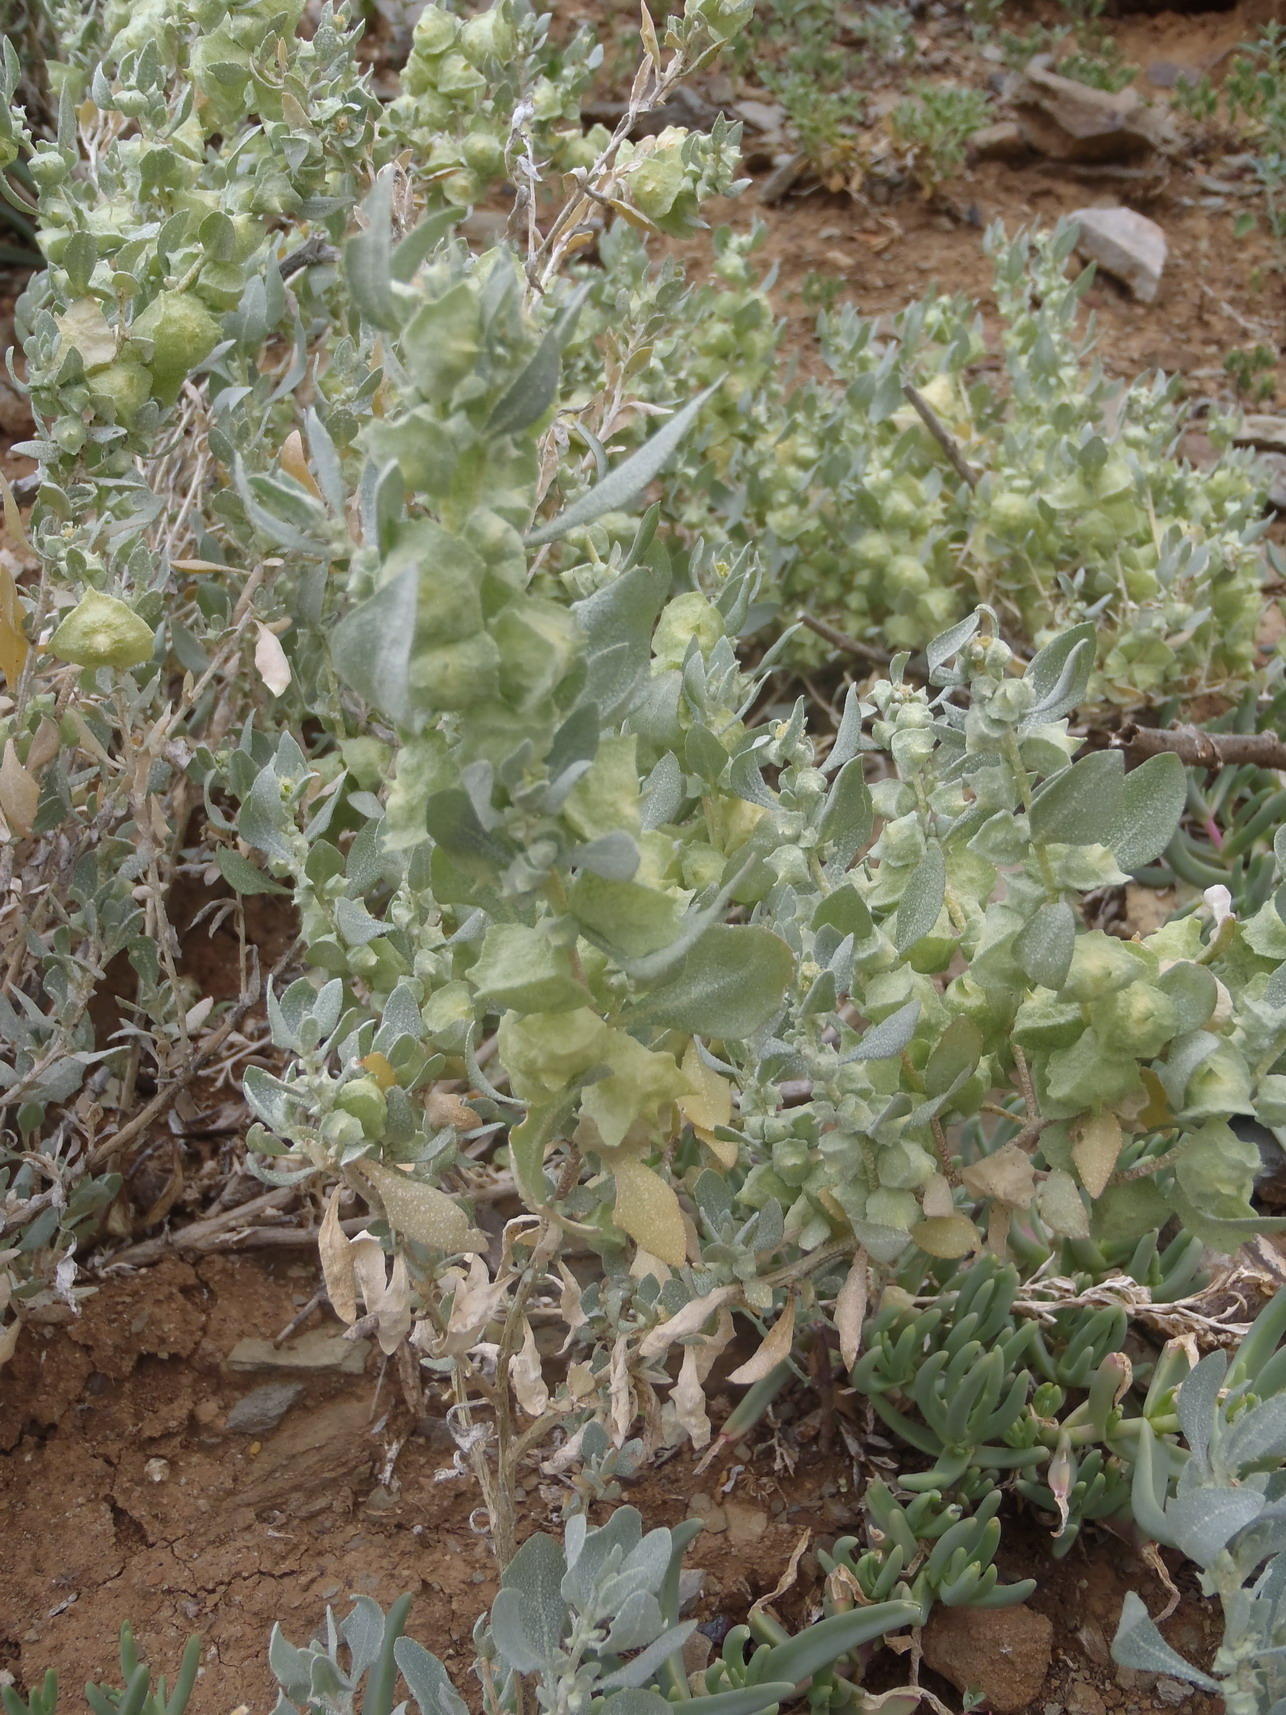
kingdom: Plantae
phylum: Tracheophyta
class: Magnoliopsida
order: Caryophyllales
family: Amaranthaceae
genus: Atriplex
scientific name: Atriplex lindleyi
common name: Lindley's saltbush
